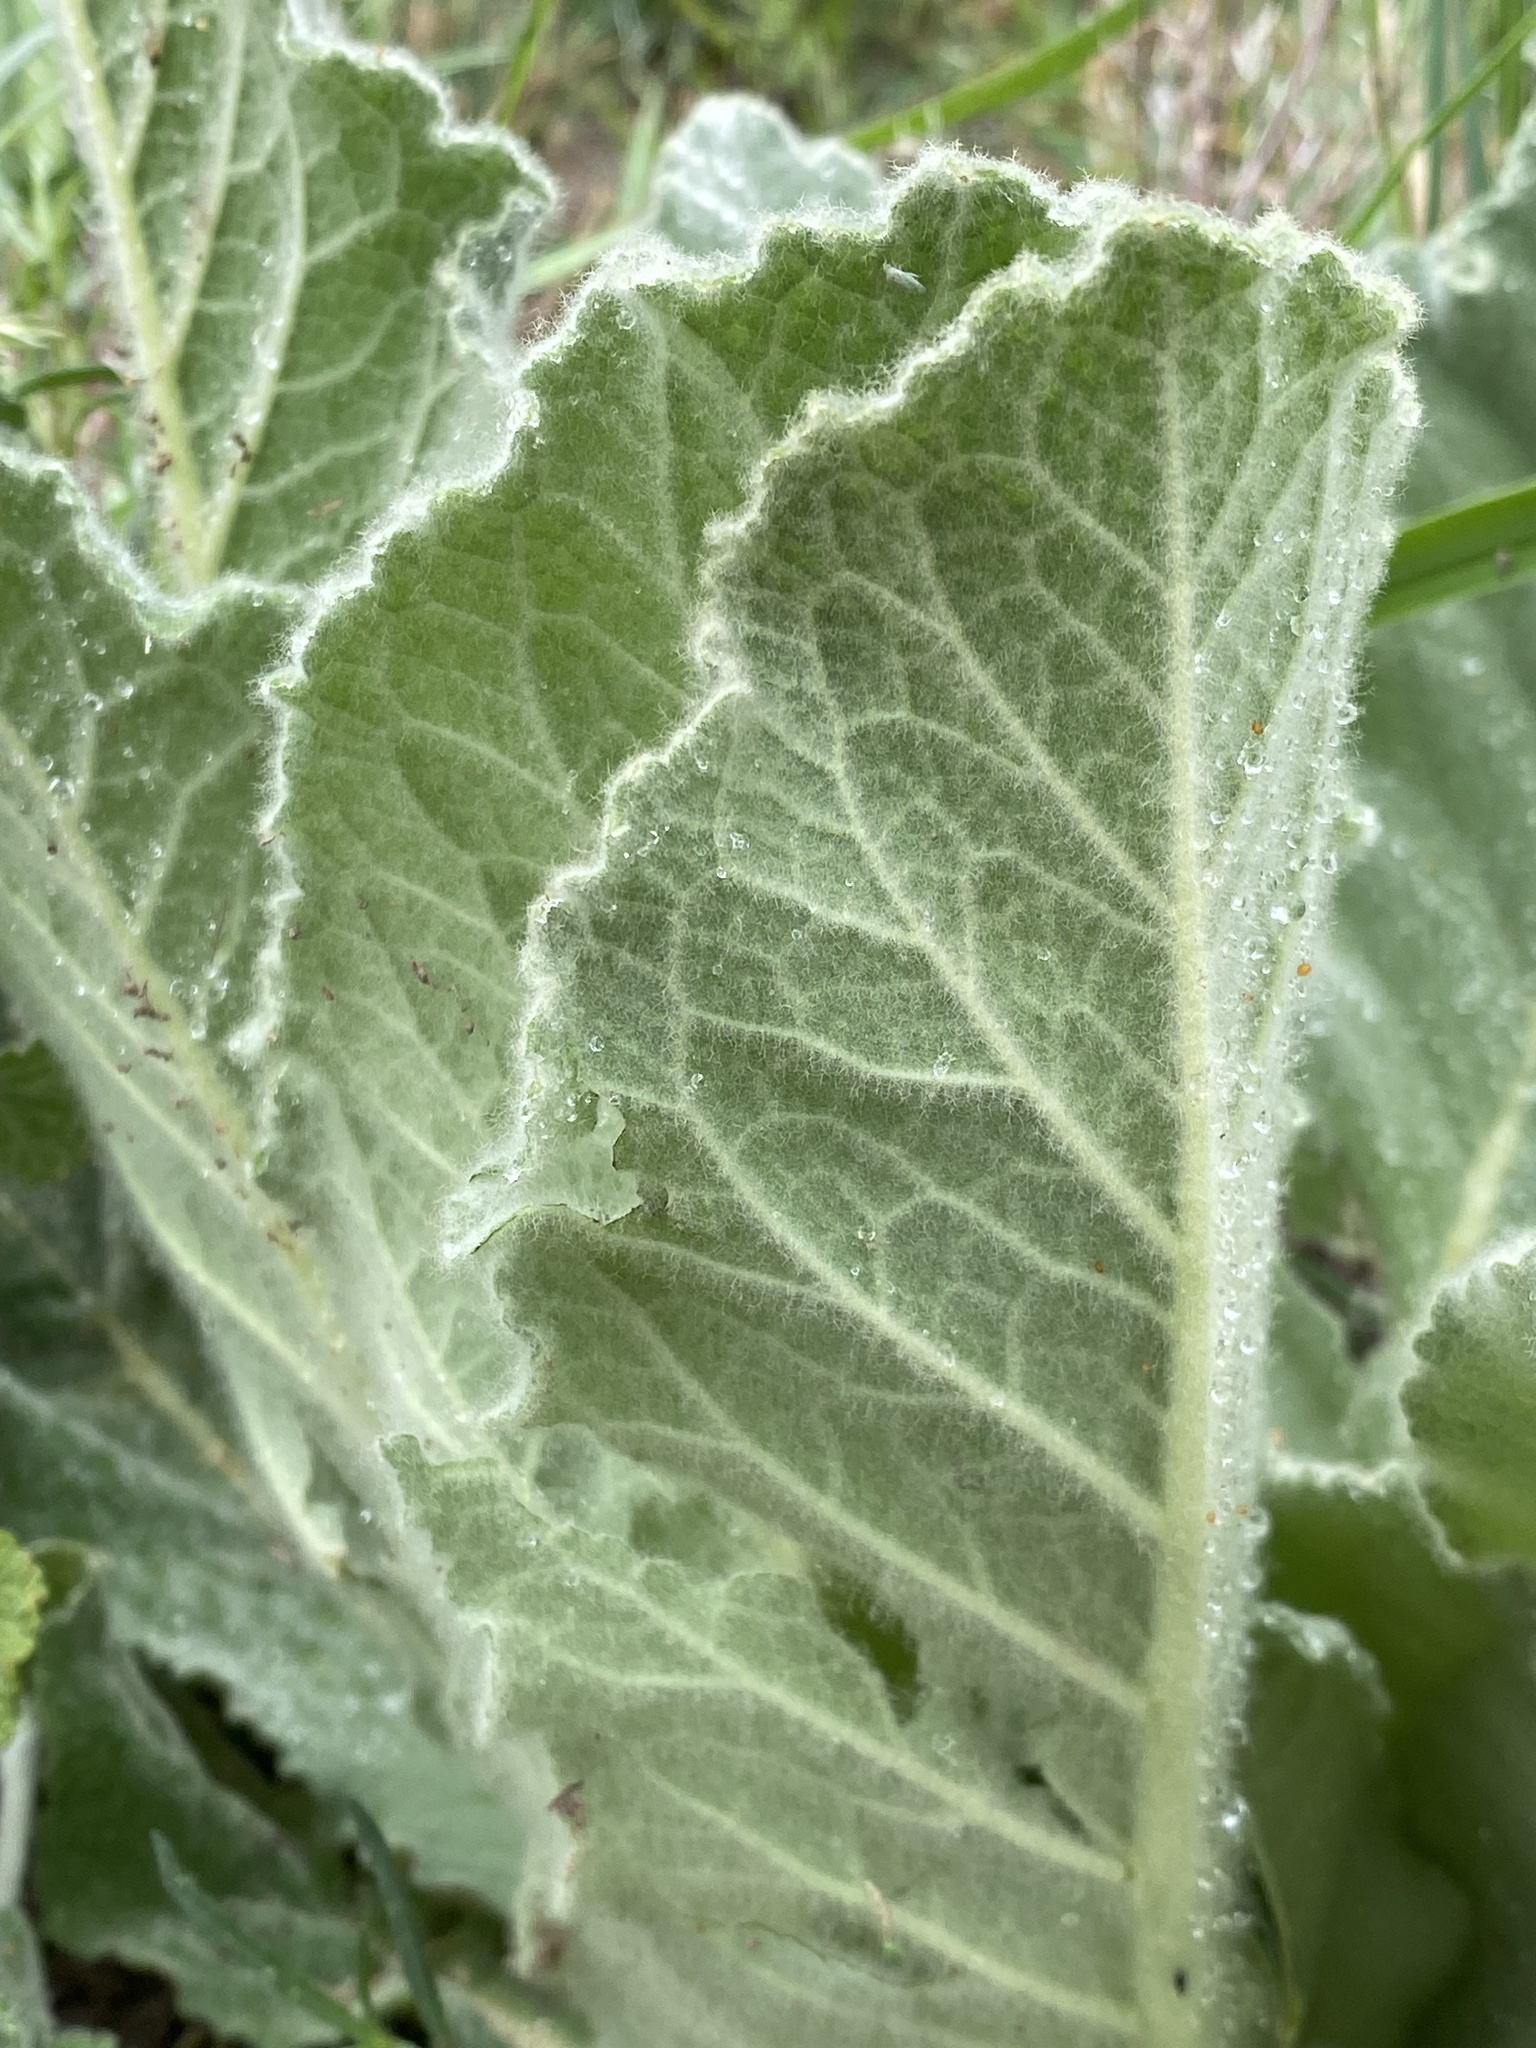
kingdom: Plantae
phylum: Tracheophyta
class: Magnoliopsida
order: Lamiales
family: Scrophulariaceae
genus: Verbascum
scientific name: Verbascum thapsus
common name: Common mullein
